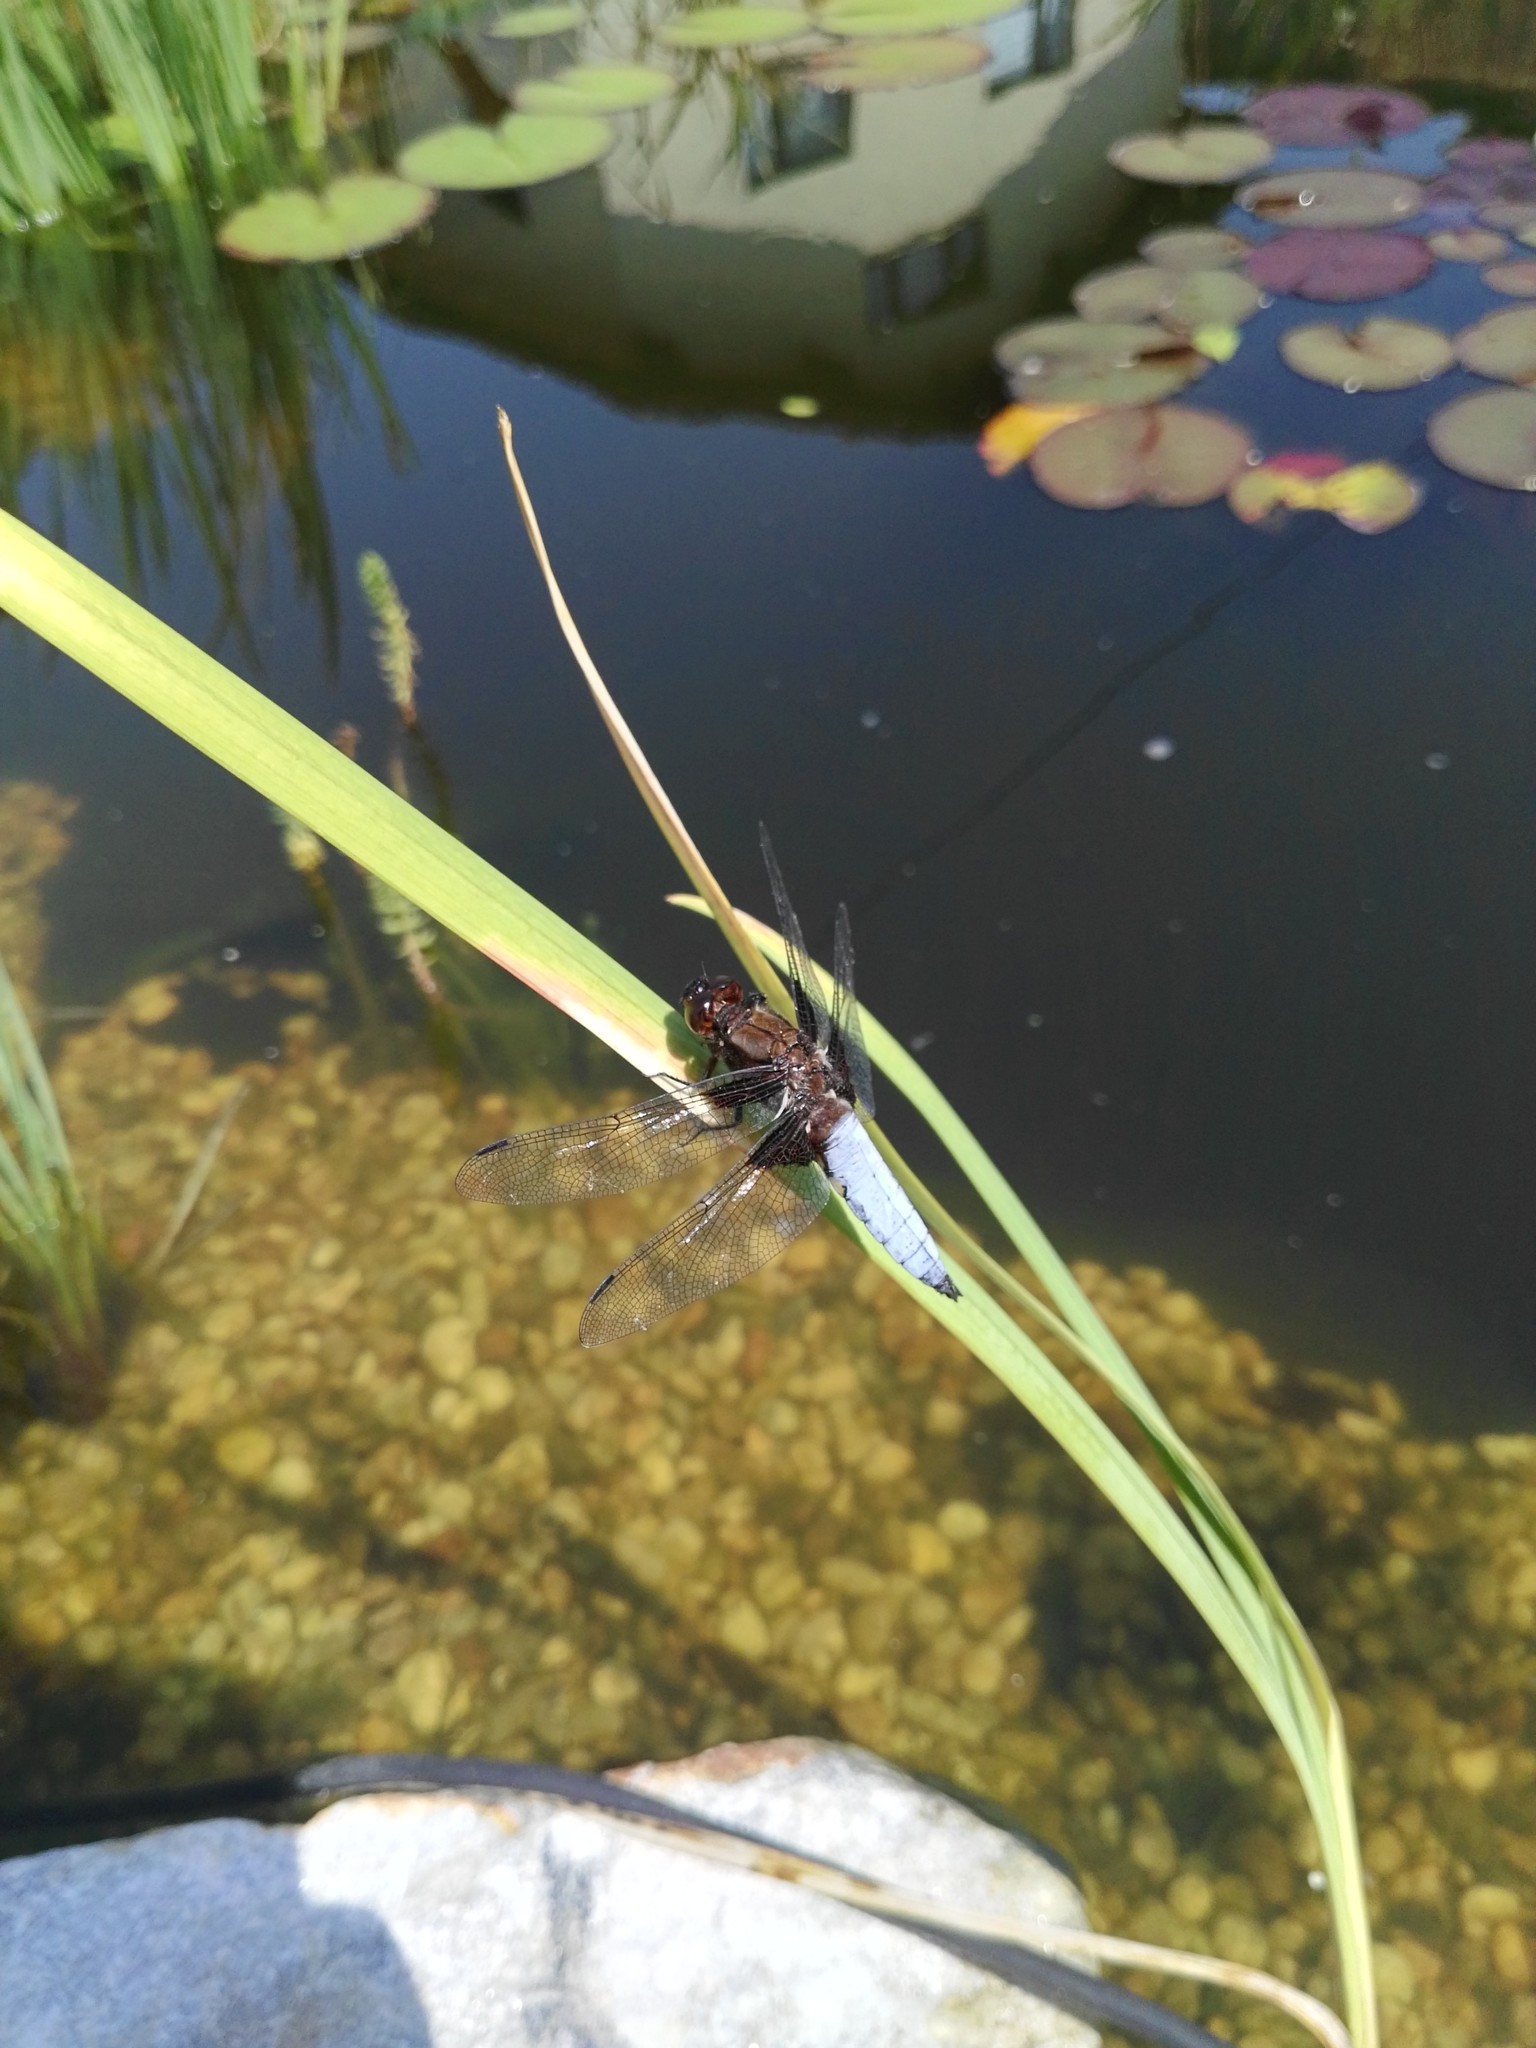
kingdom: Animalia
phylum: Arthropoda
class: Insecta
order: Odonata
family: Libellulidae
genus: Libellula
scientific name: Libellula depressa
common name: Broad-bodied chaser
